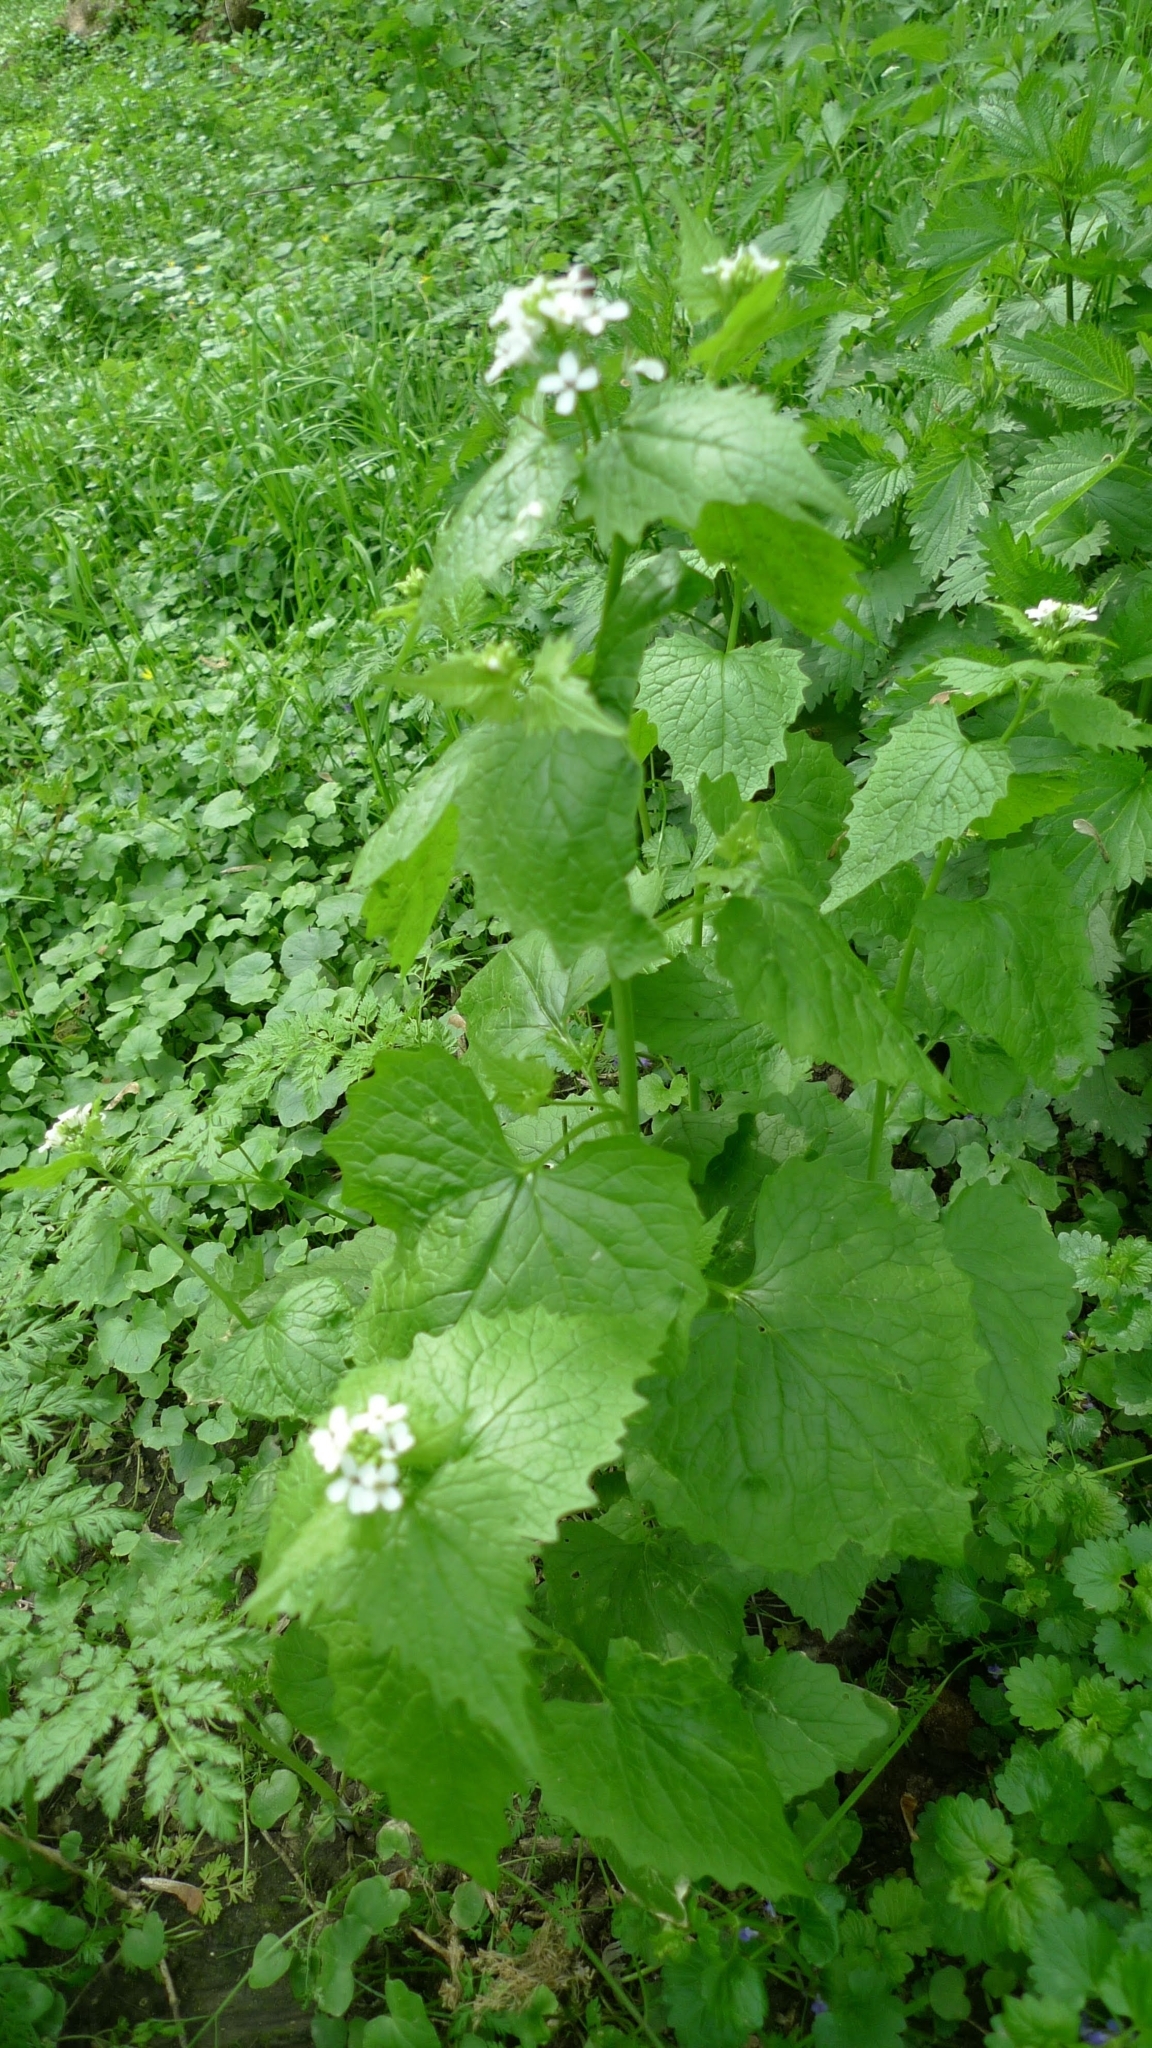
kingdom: Plantae
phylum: Tracheophyta
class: Magnoliopsida
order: Brassicales
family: Brassicaceae
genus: Alliaria
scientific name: Alliaria petiolata
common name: Garlic mustard
